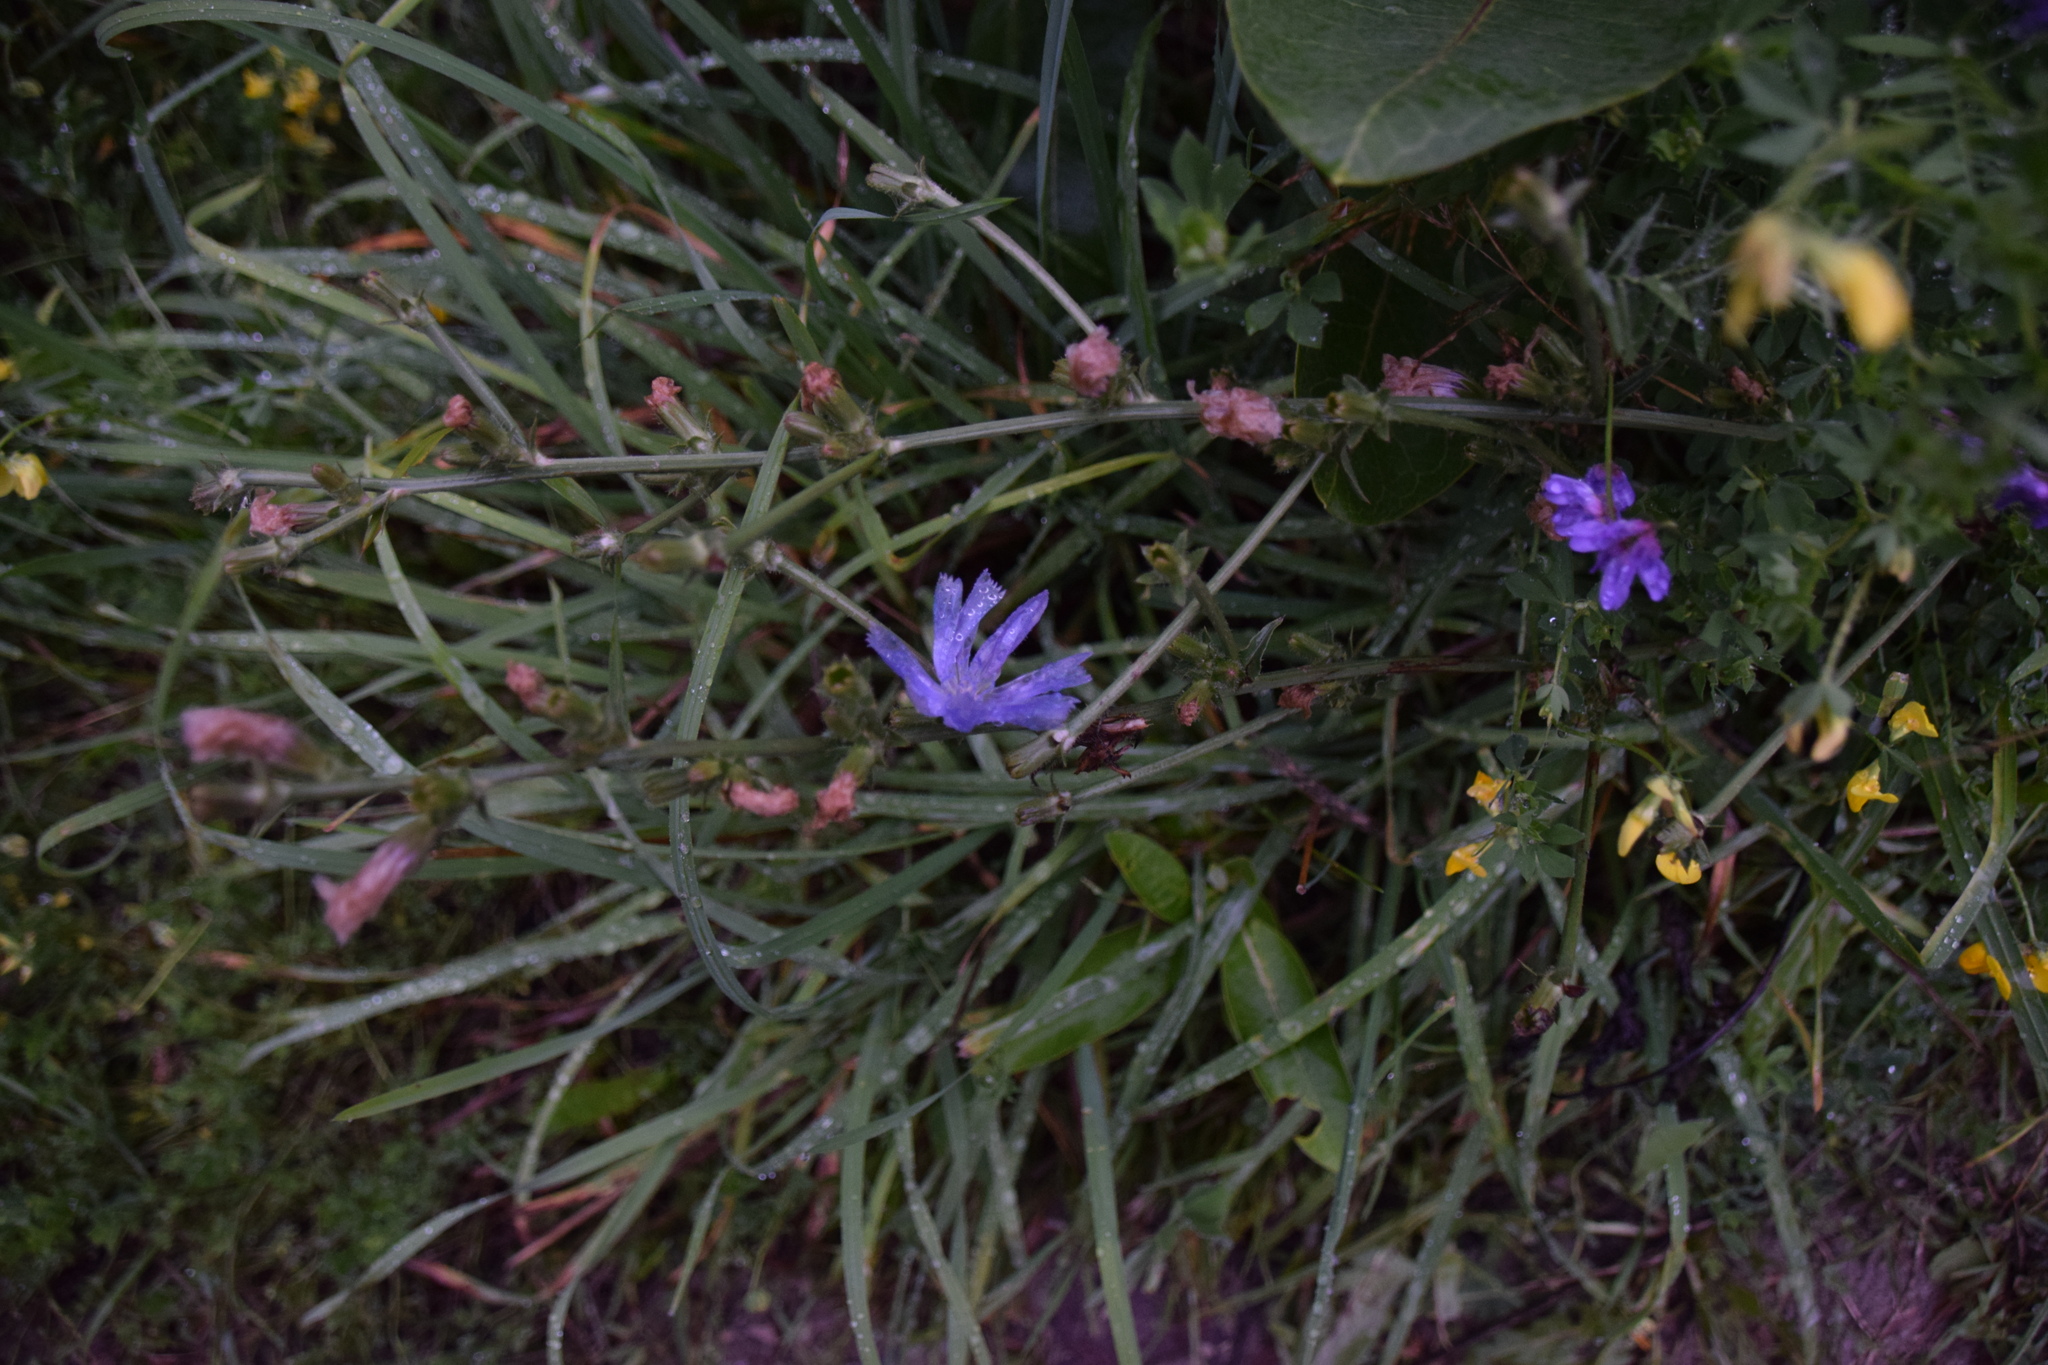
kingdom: Plantae
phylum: Tracheophyta
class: Magnoliopsida
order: Asterales
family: Asteraceae
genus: Cichorium
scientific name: Cichorium intybus
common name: Chicory
